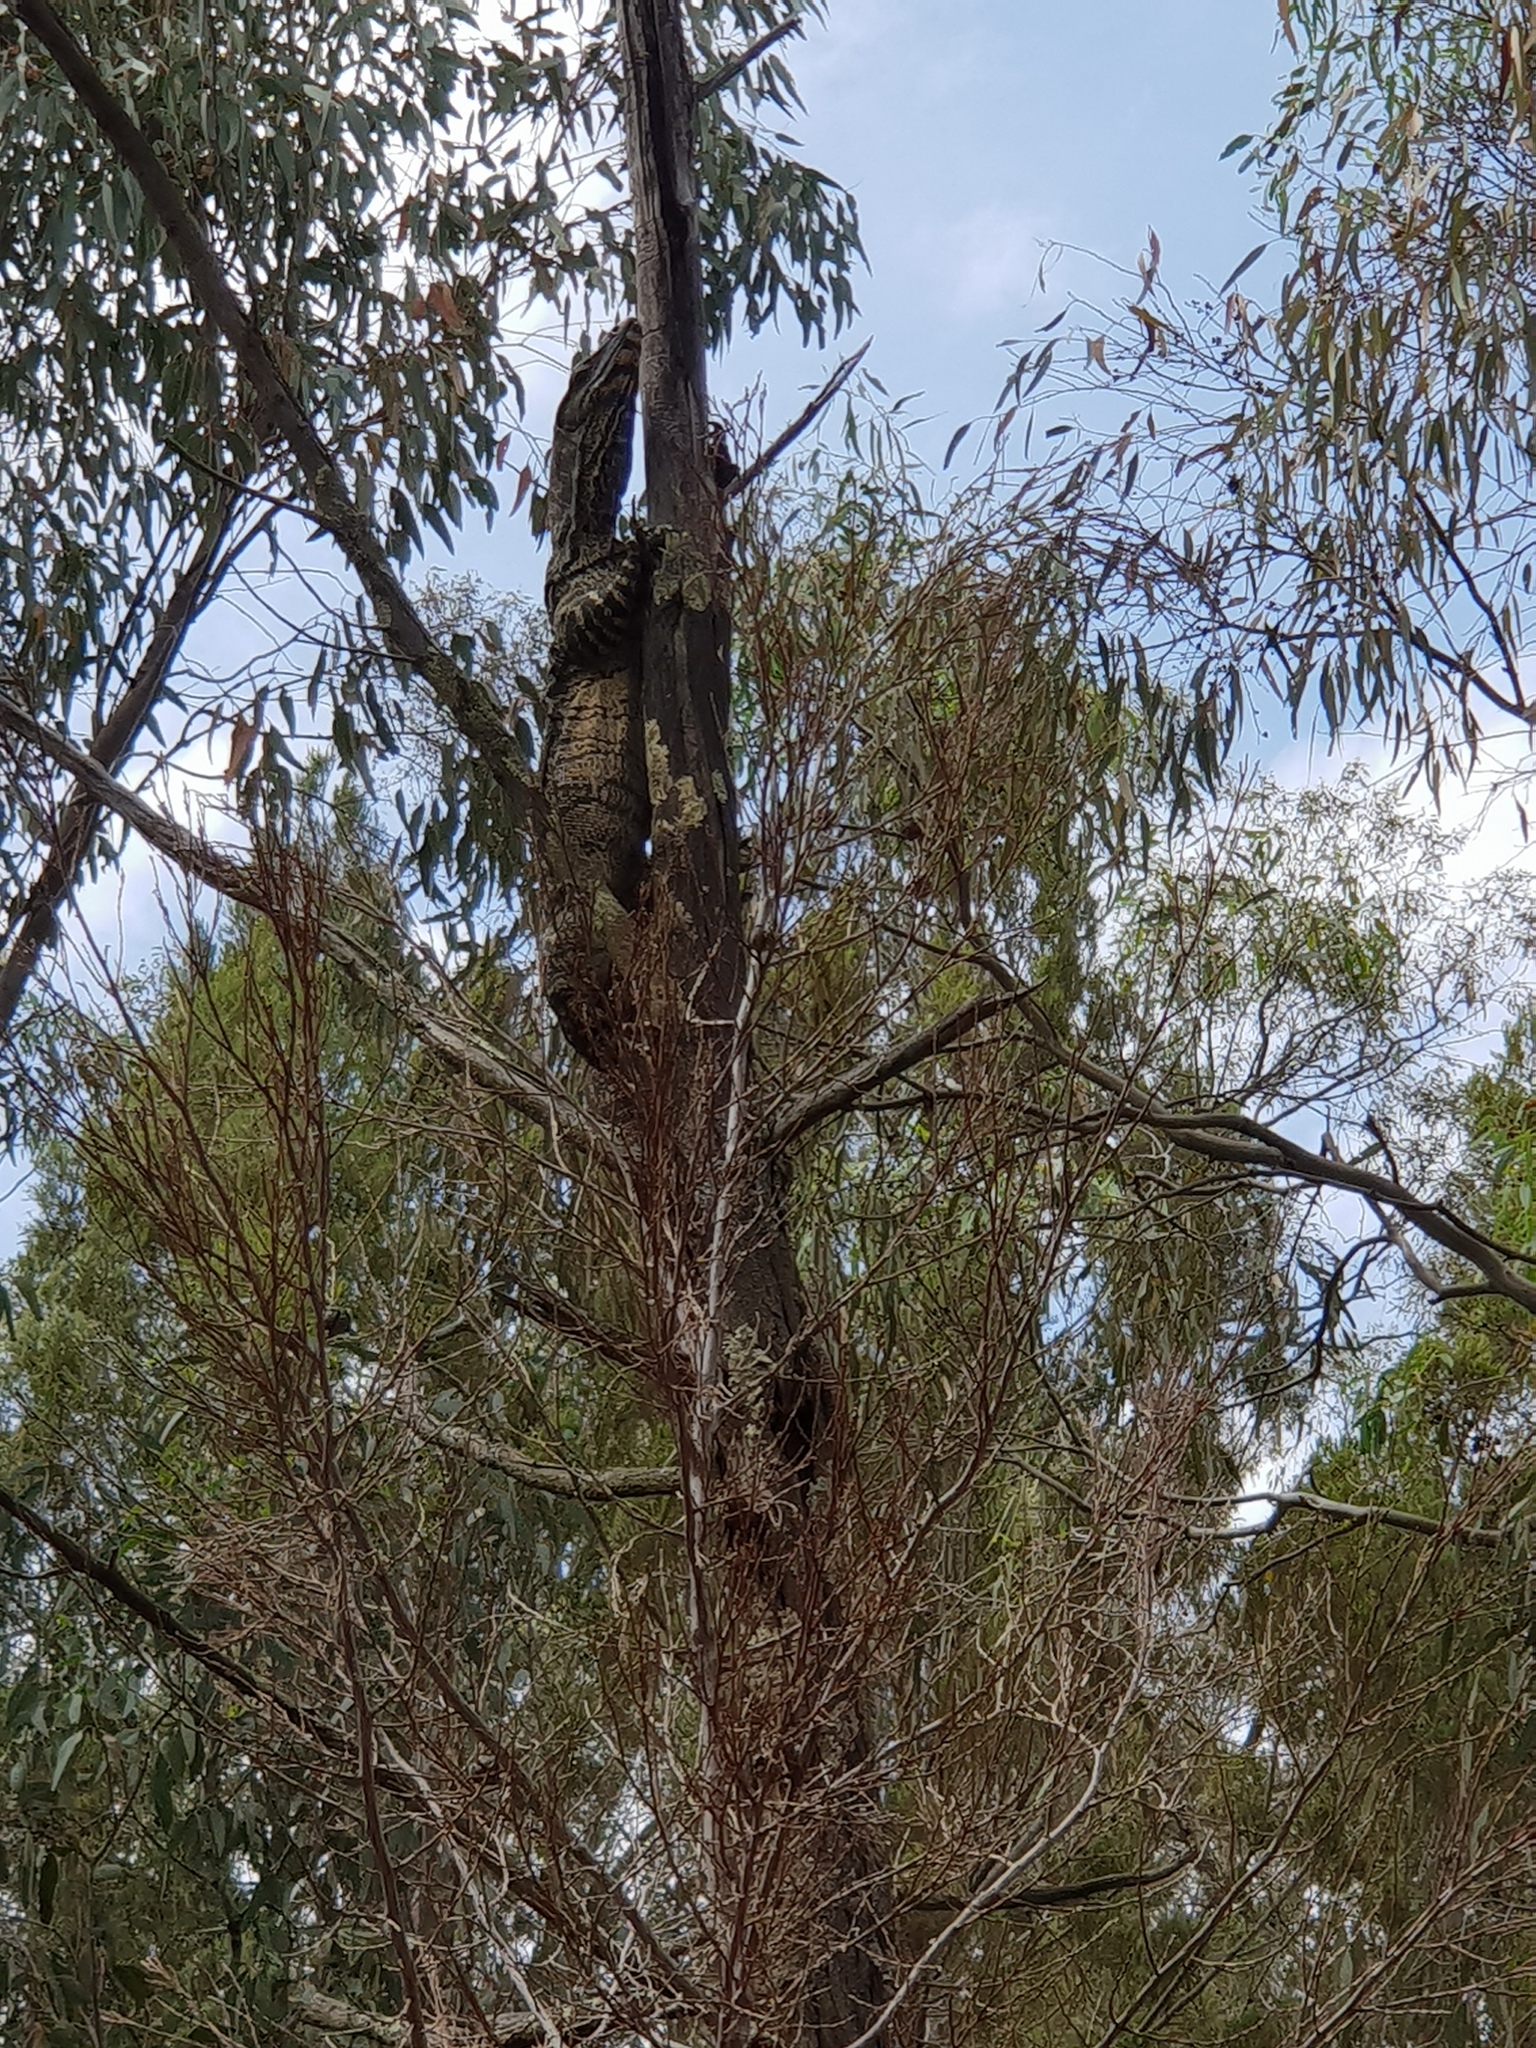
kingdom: Animalia
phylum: Chordata
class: Squamata
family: Varanidae
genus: Varanus
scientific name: Varanus varius
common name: Lace monitor
